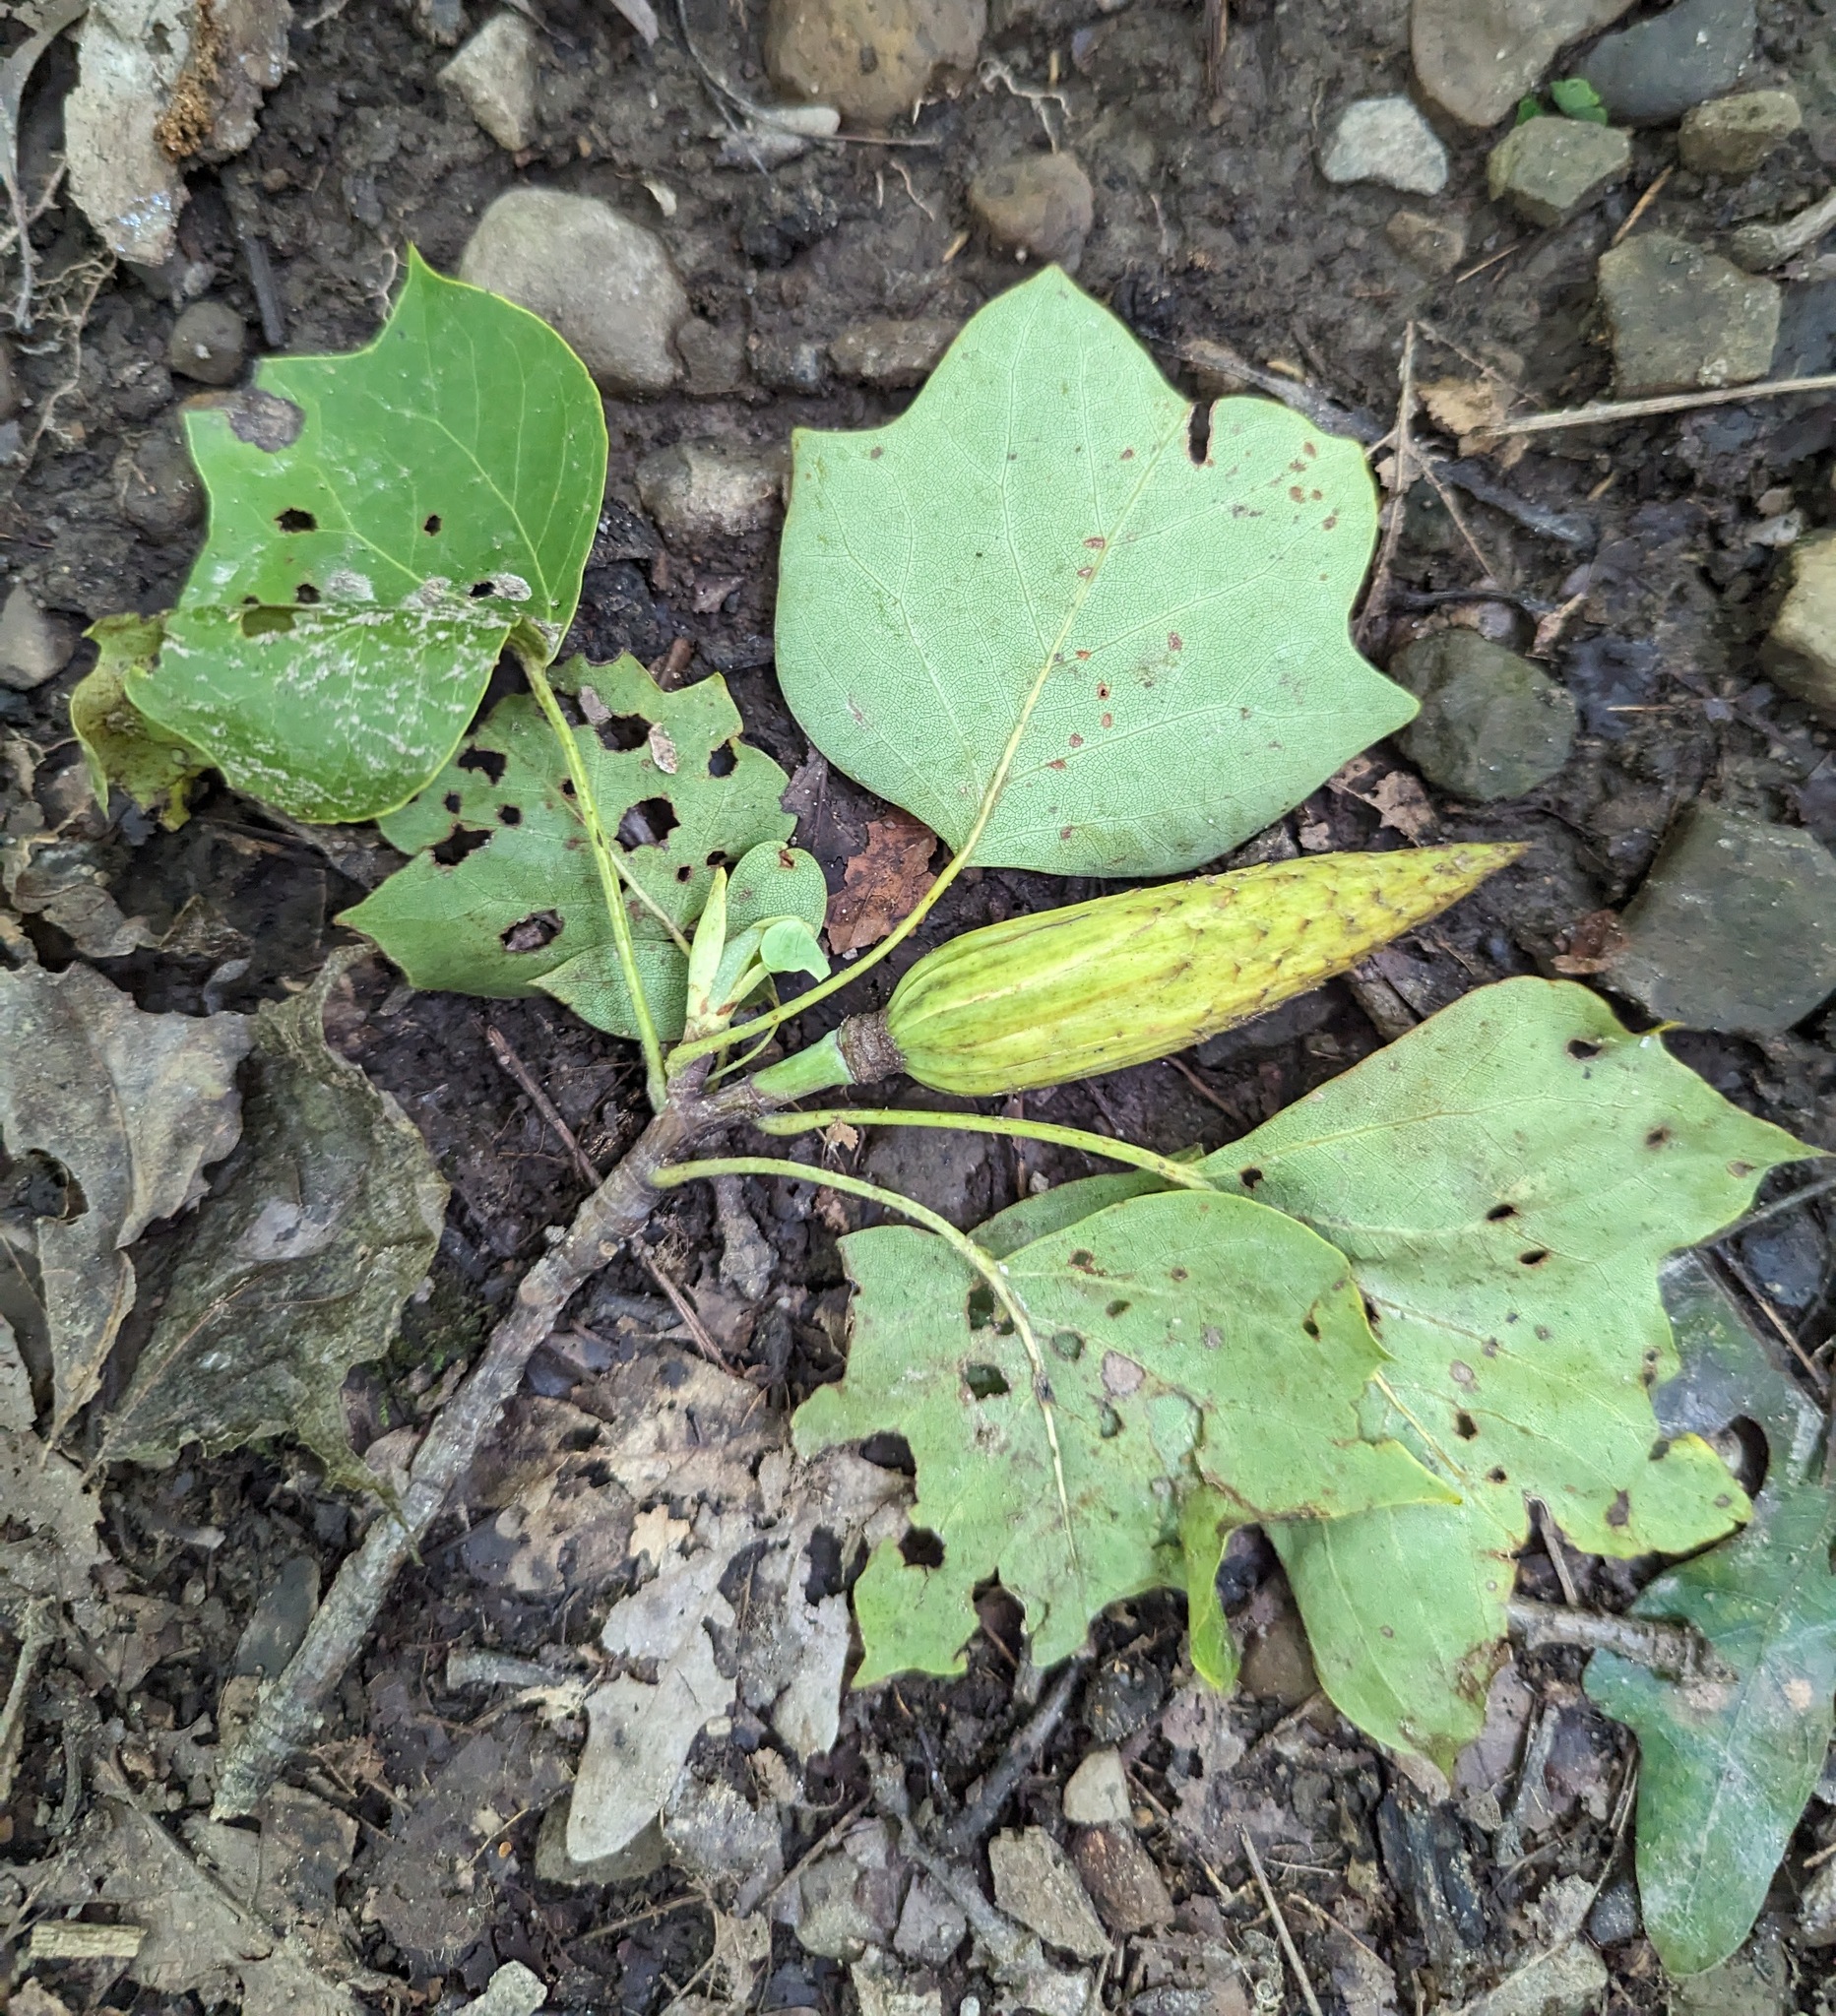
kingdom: Plantae
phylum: Tracheophyta
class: Magnoliopsida
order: Magnoliales
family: Magnoliaceae
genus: Liriodendron
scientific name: Liriodendron tulipifera
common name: Tulip tree
